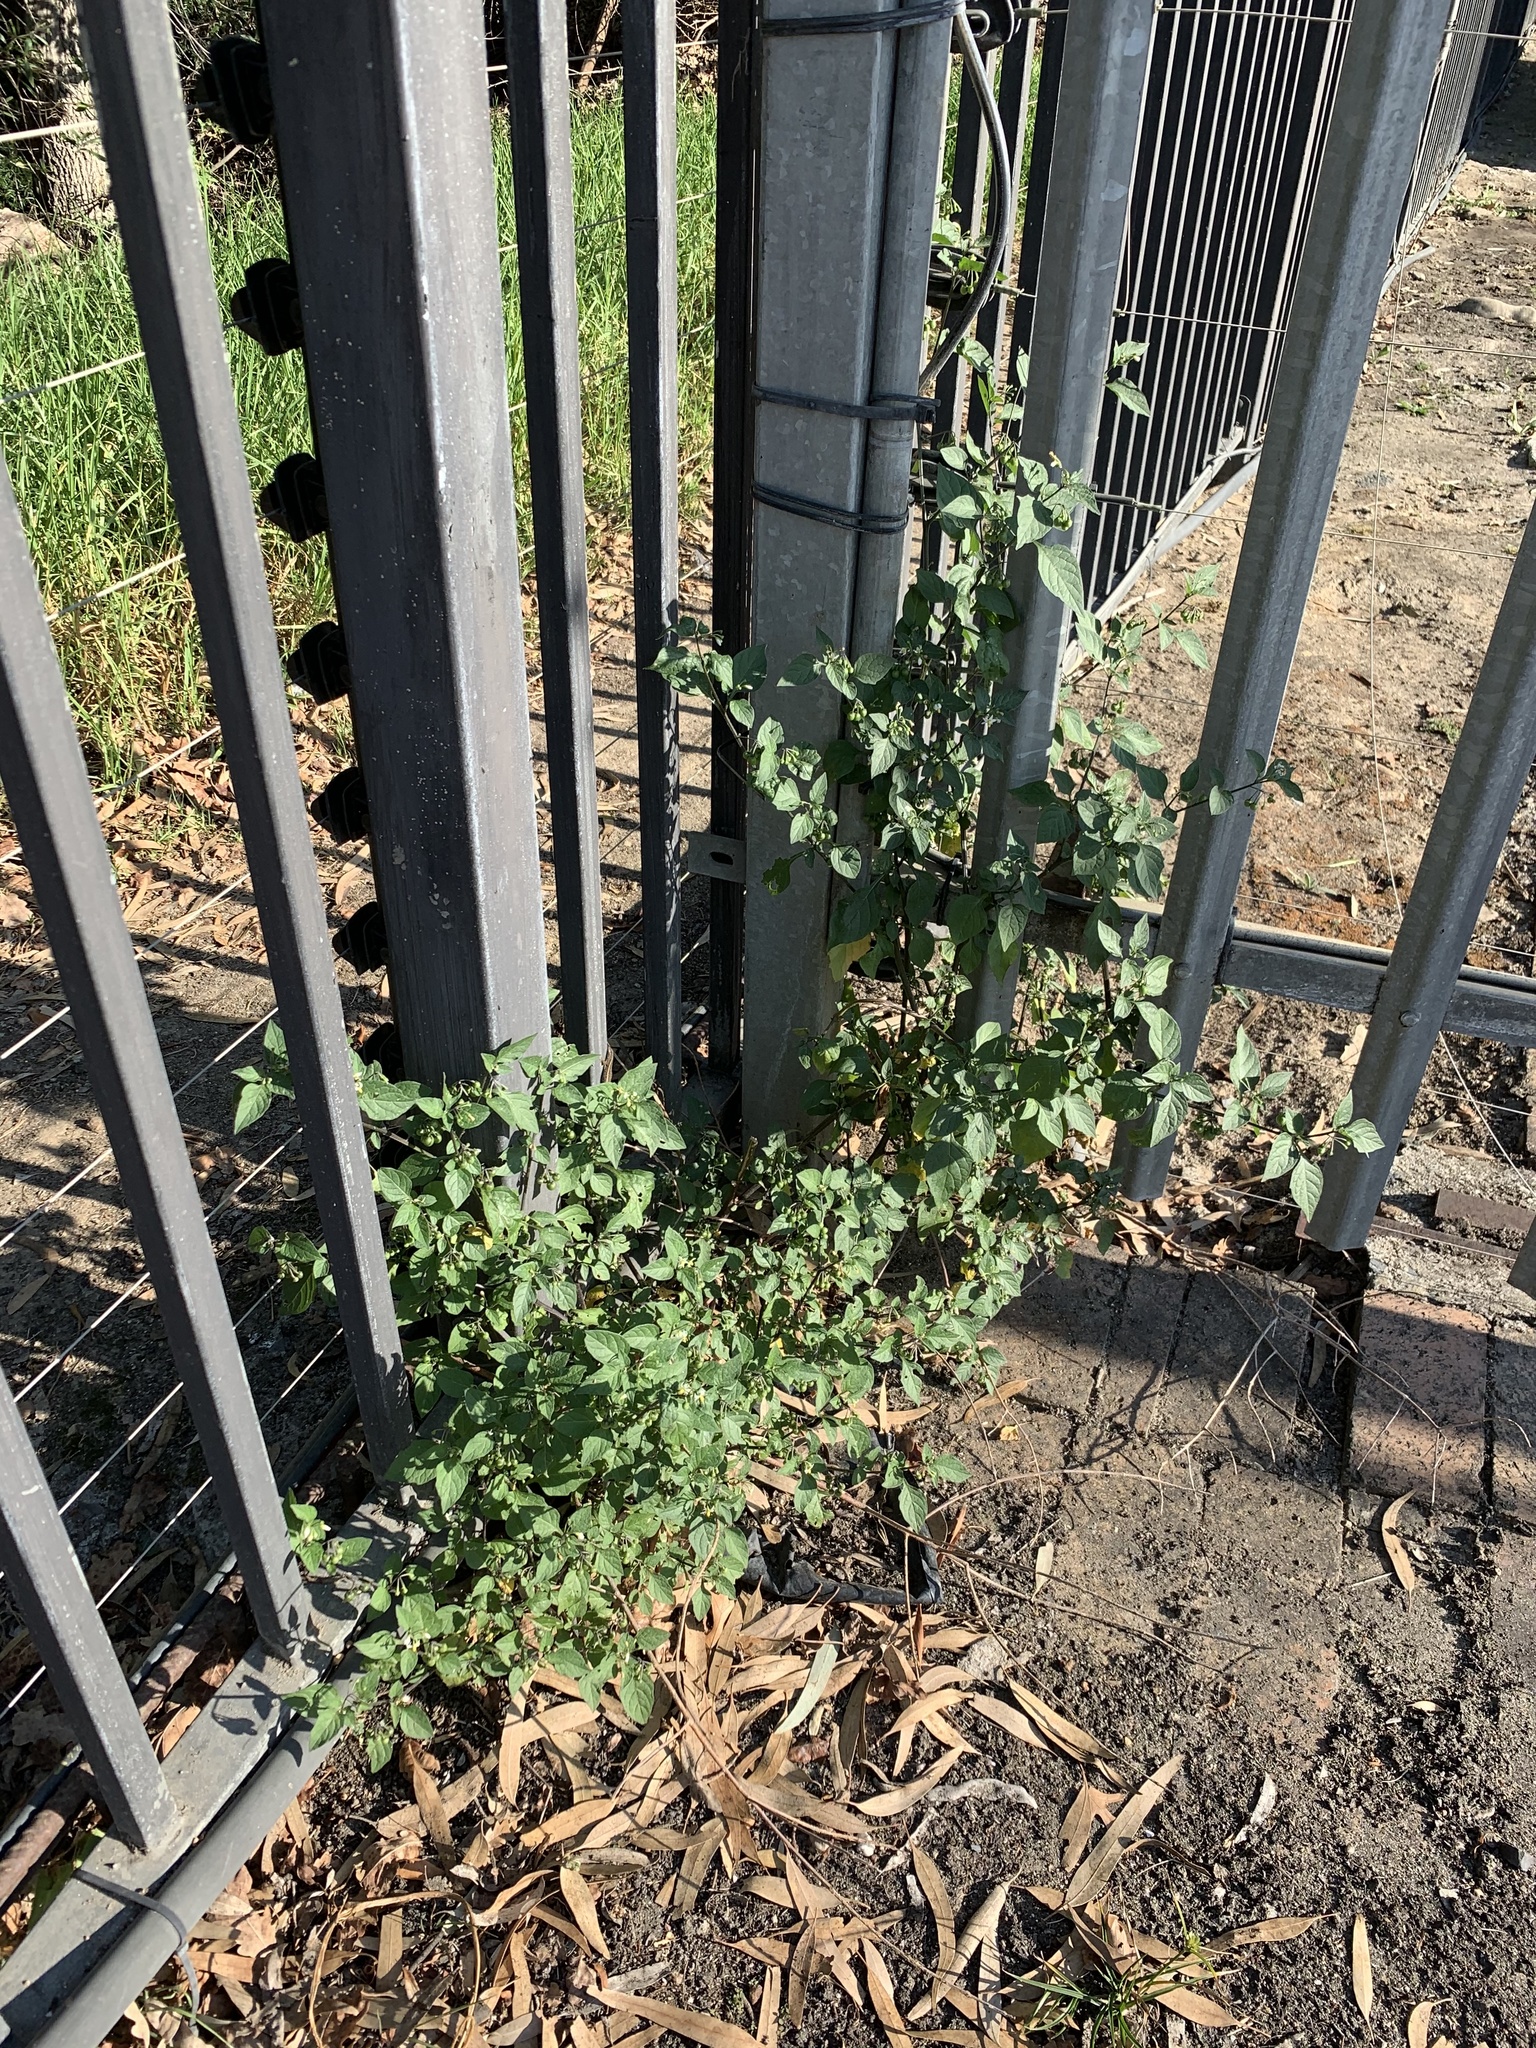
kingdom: Plantae
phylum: Tracheophyta
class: Magnoliopsida
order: Solanales
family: Solanaceae
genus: Solanum
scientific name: Solanum nigrum
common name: Black nightshade
